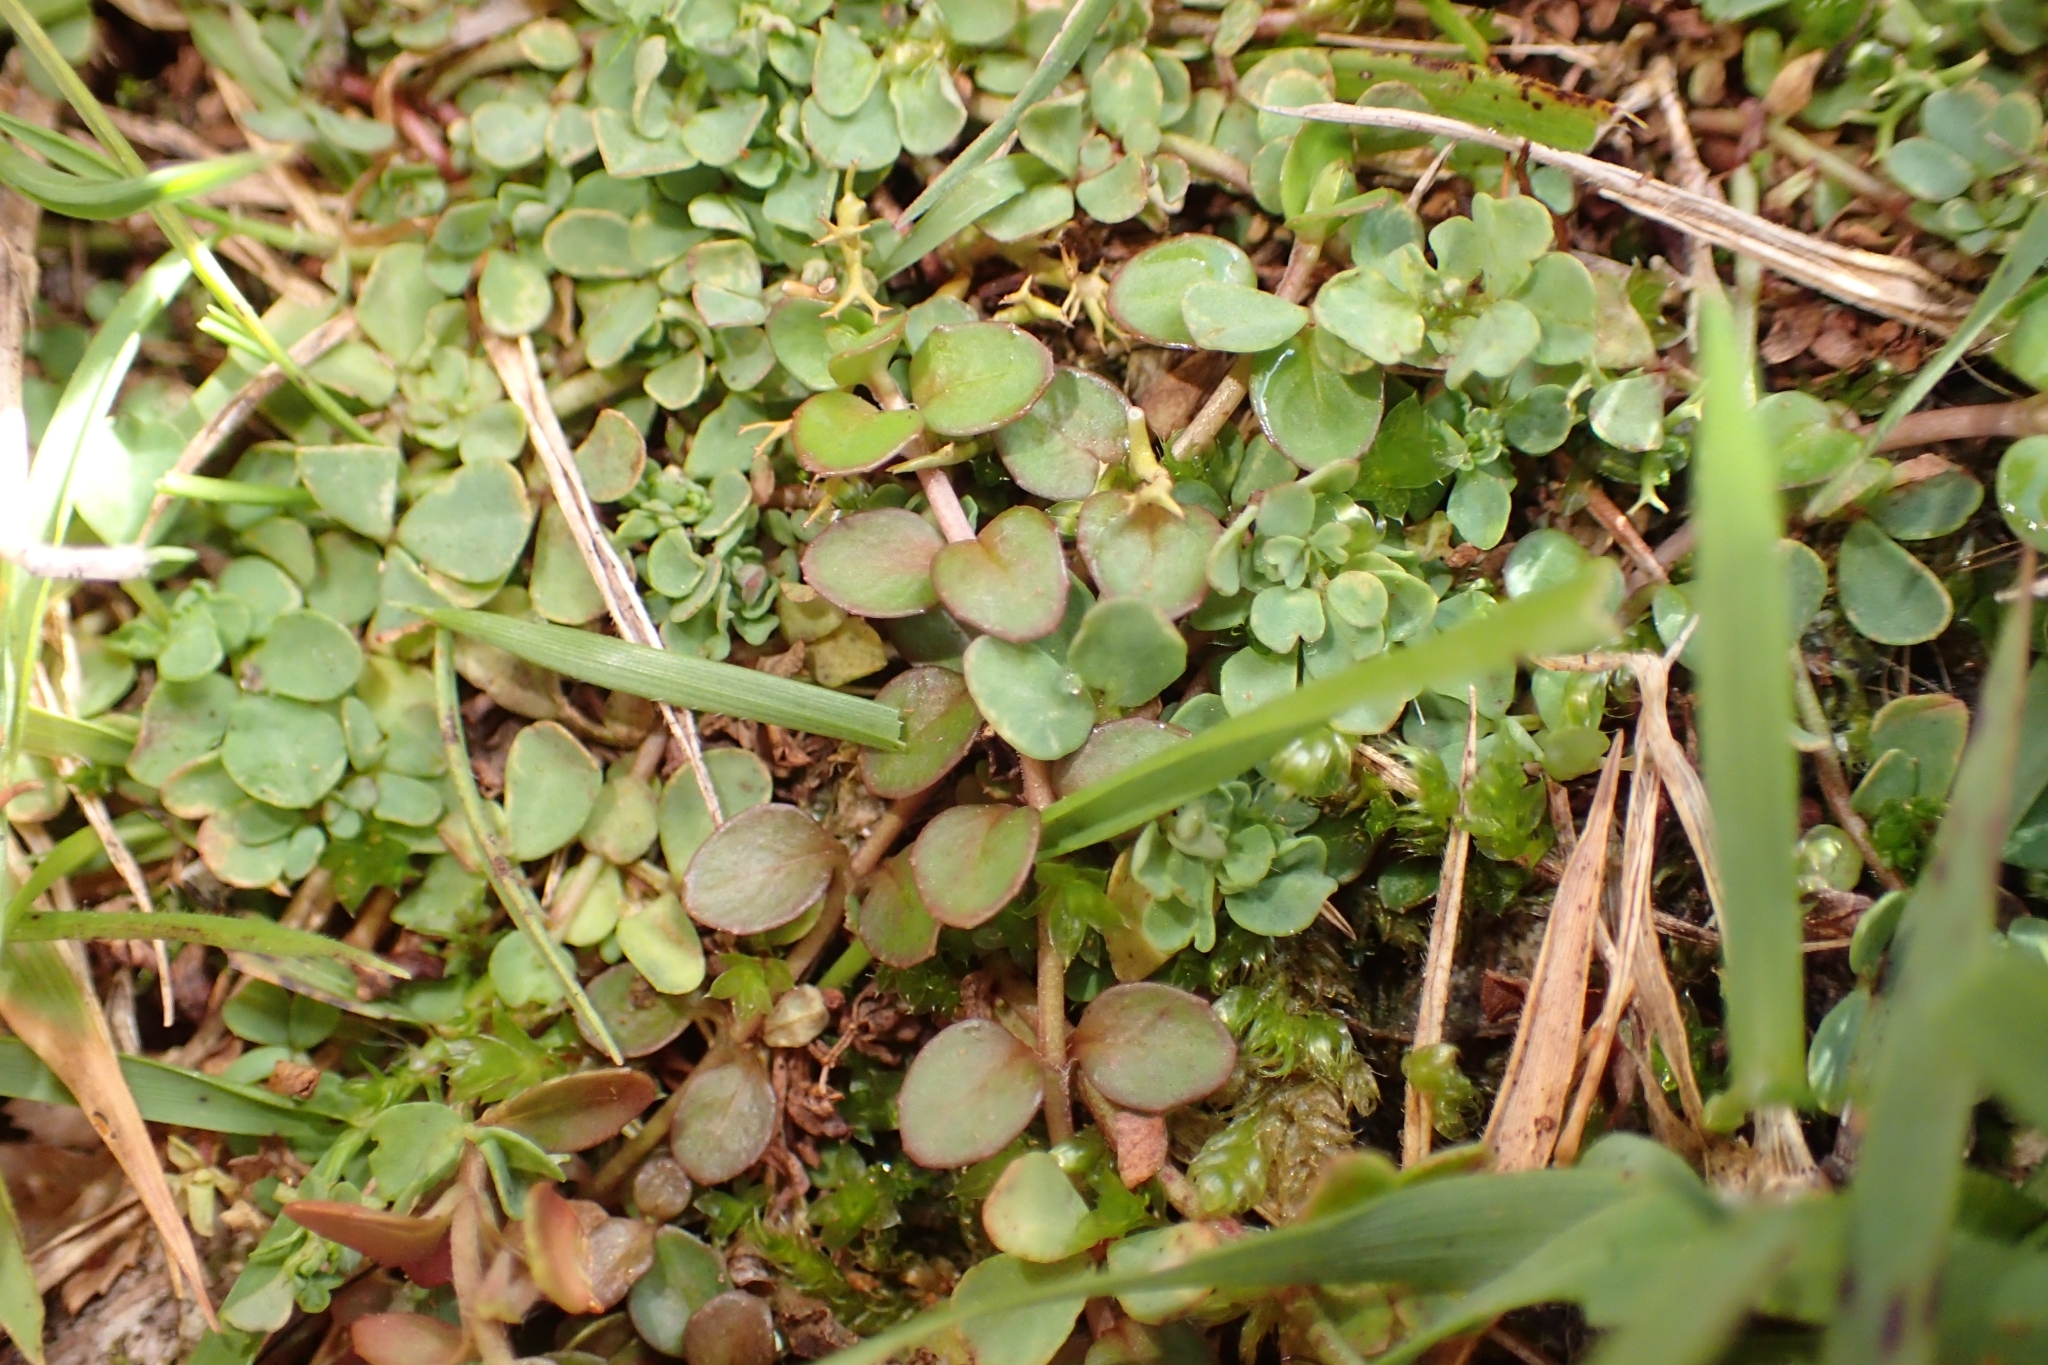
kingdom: Plantae
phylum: Tracheophyta
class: Magnoliopsida
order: Myrtales
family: Onagraceae
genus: Epilobium
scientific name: Epilobium brunnescens
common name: New zealand willowherb
